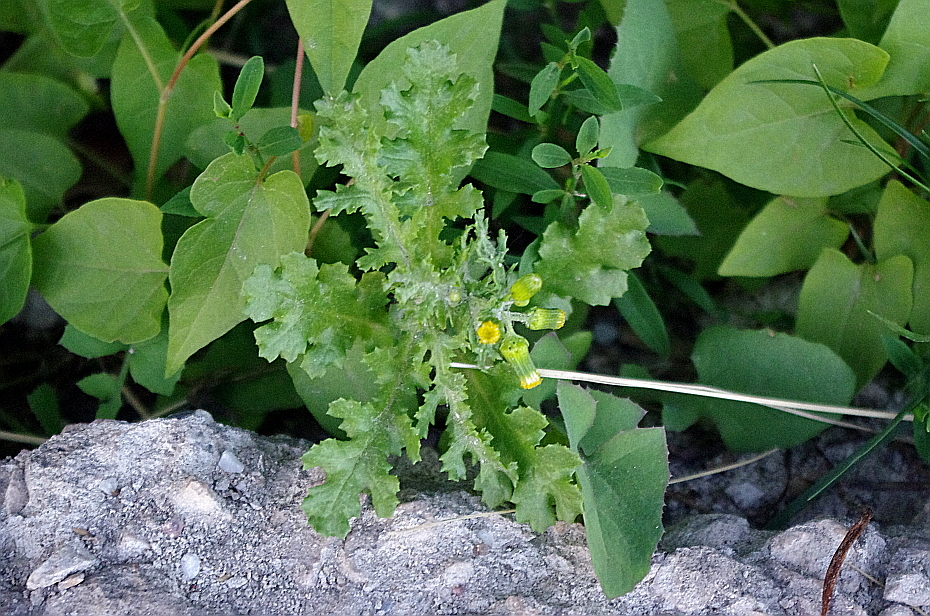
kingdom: Plantae
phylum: Tracheophyta
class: Magnoliopsida
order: Asterales
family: Asteraceae
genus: Senecio
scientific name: Senecio vulgaris
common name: Old-man-in-the-spring
